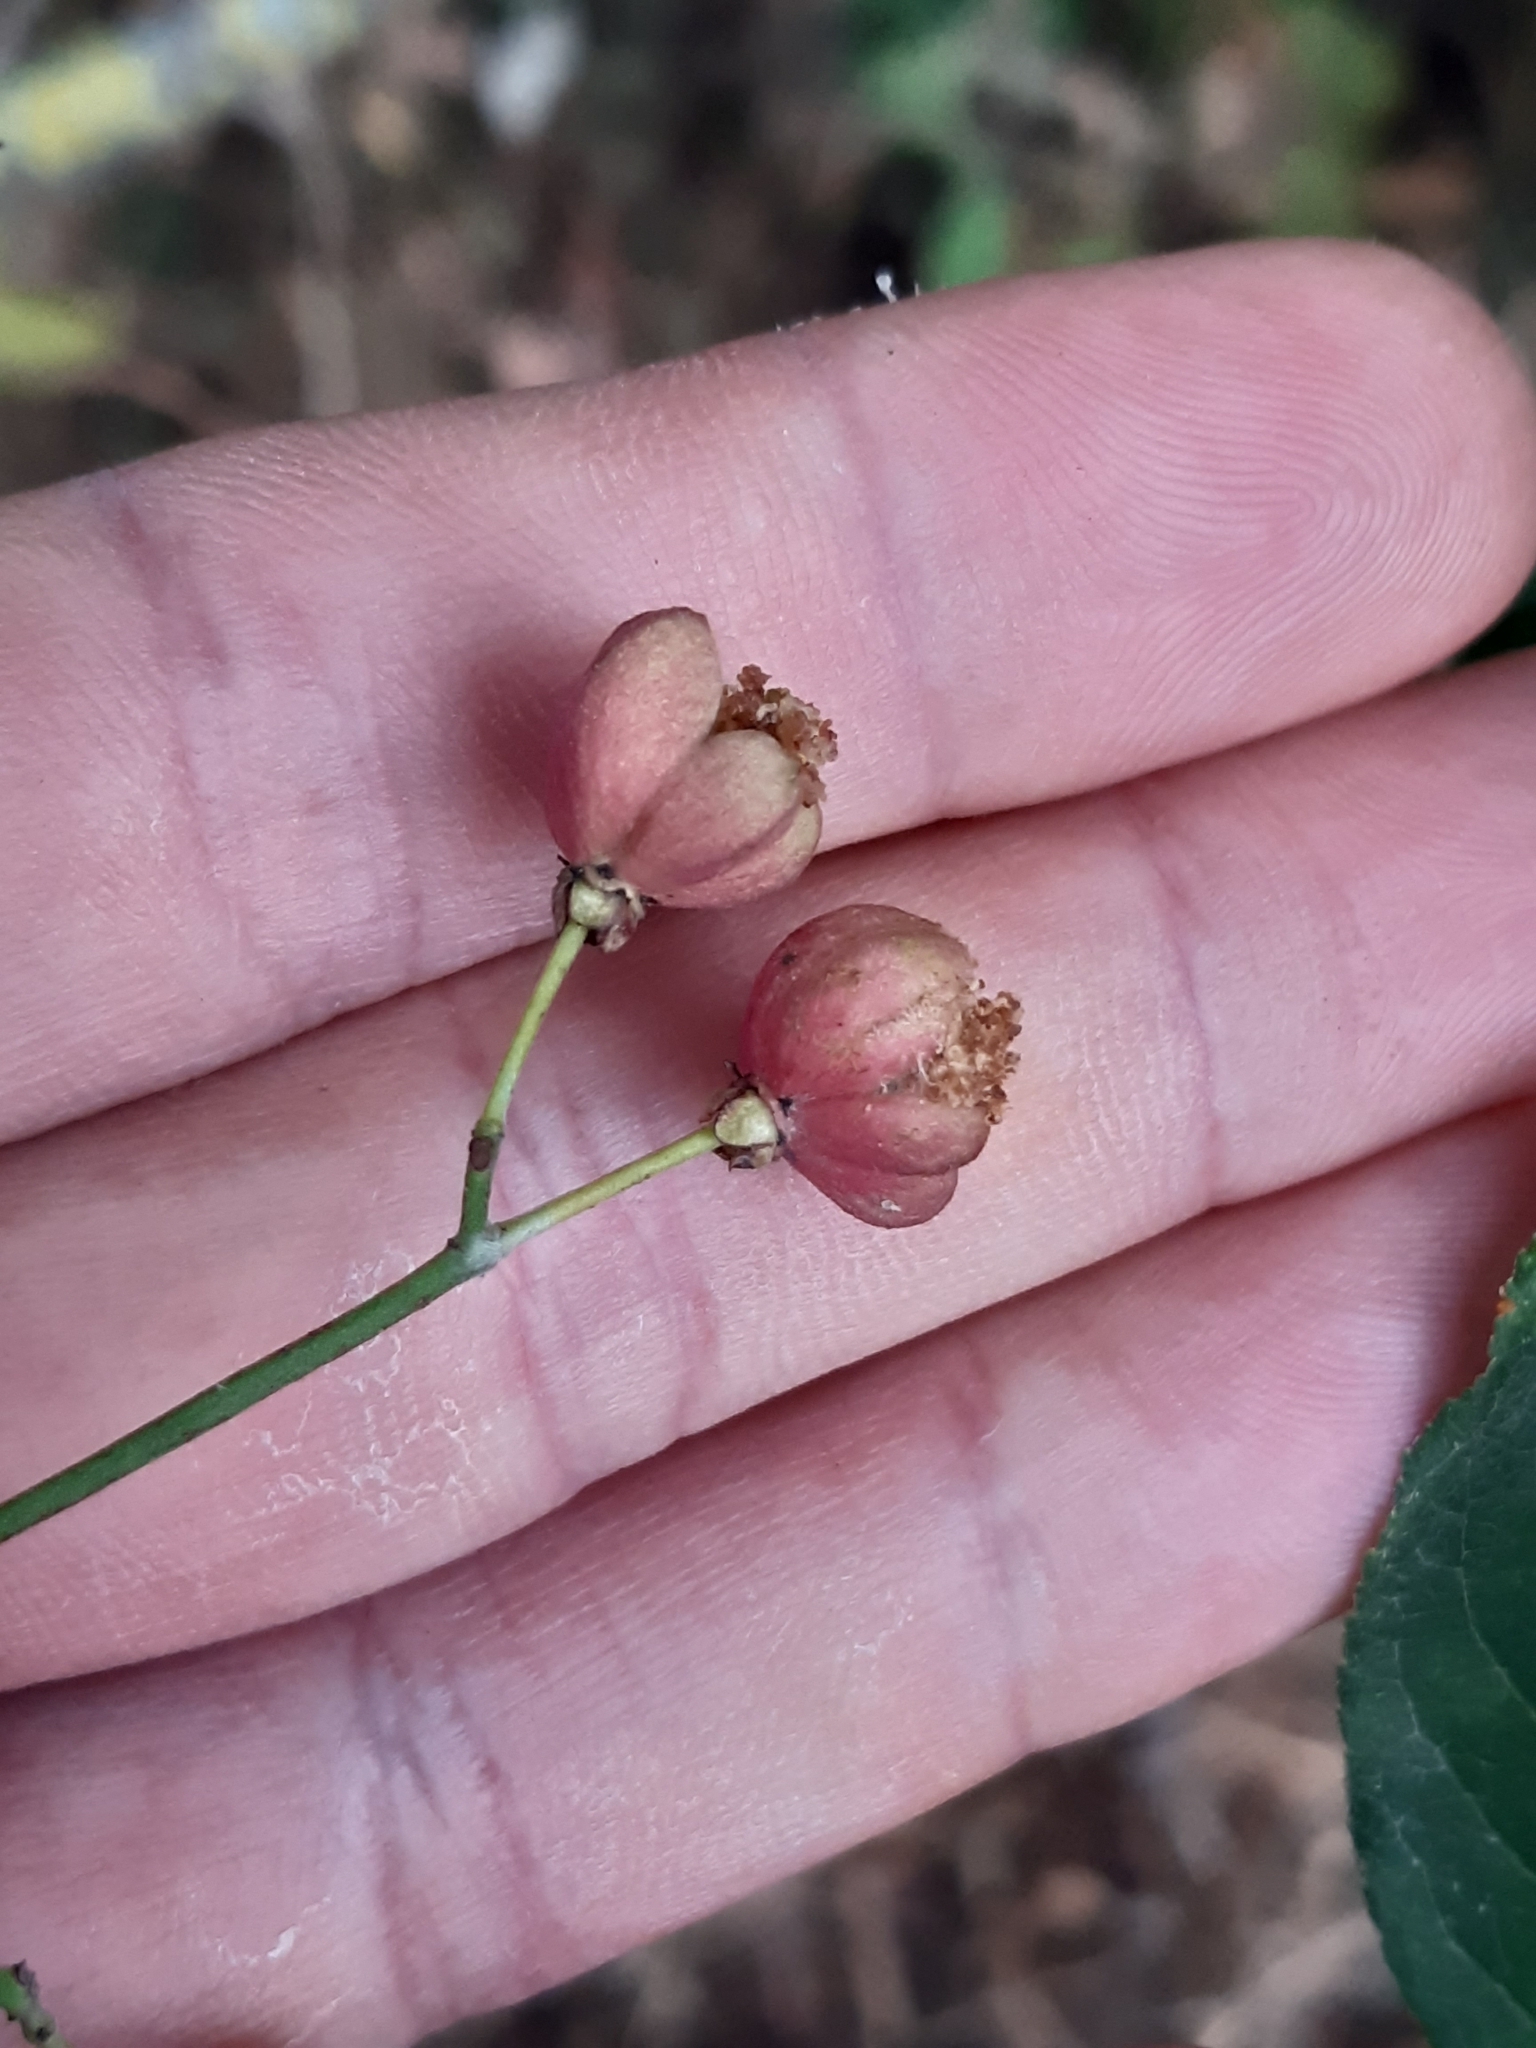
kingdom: Plantae
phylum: Tracheophyta
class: Magnoliopsida
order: Celastrales
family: Celastraceae
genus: Euonymus
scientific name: Euonymus europaeus
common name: Spindle
